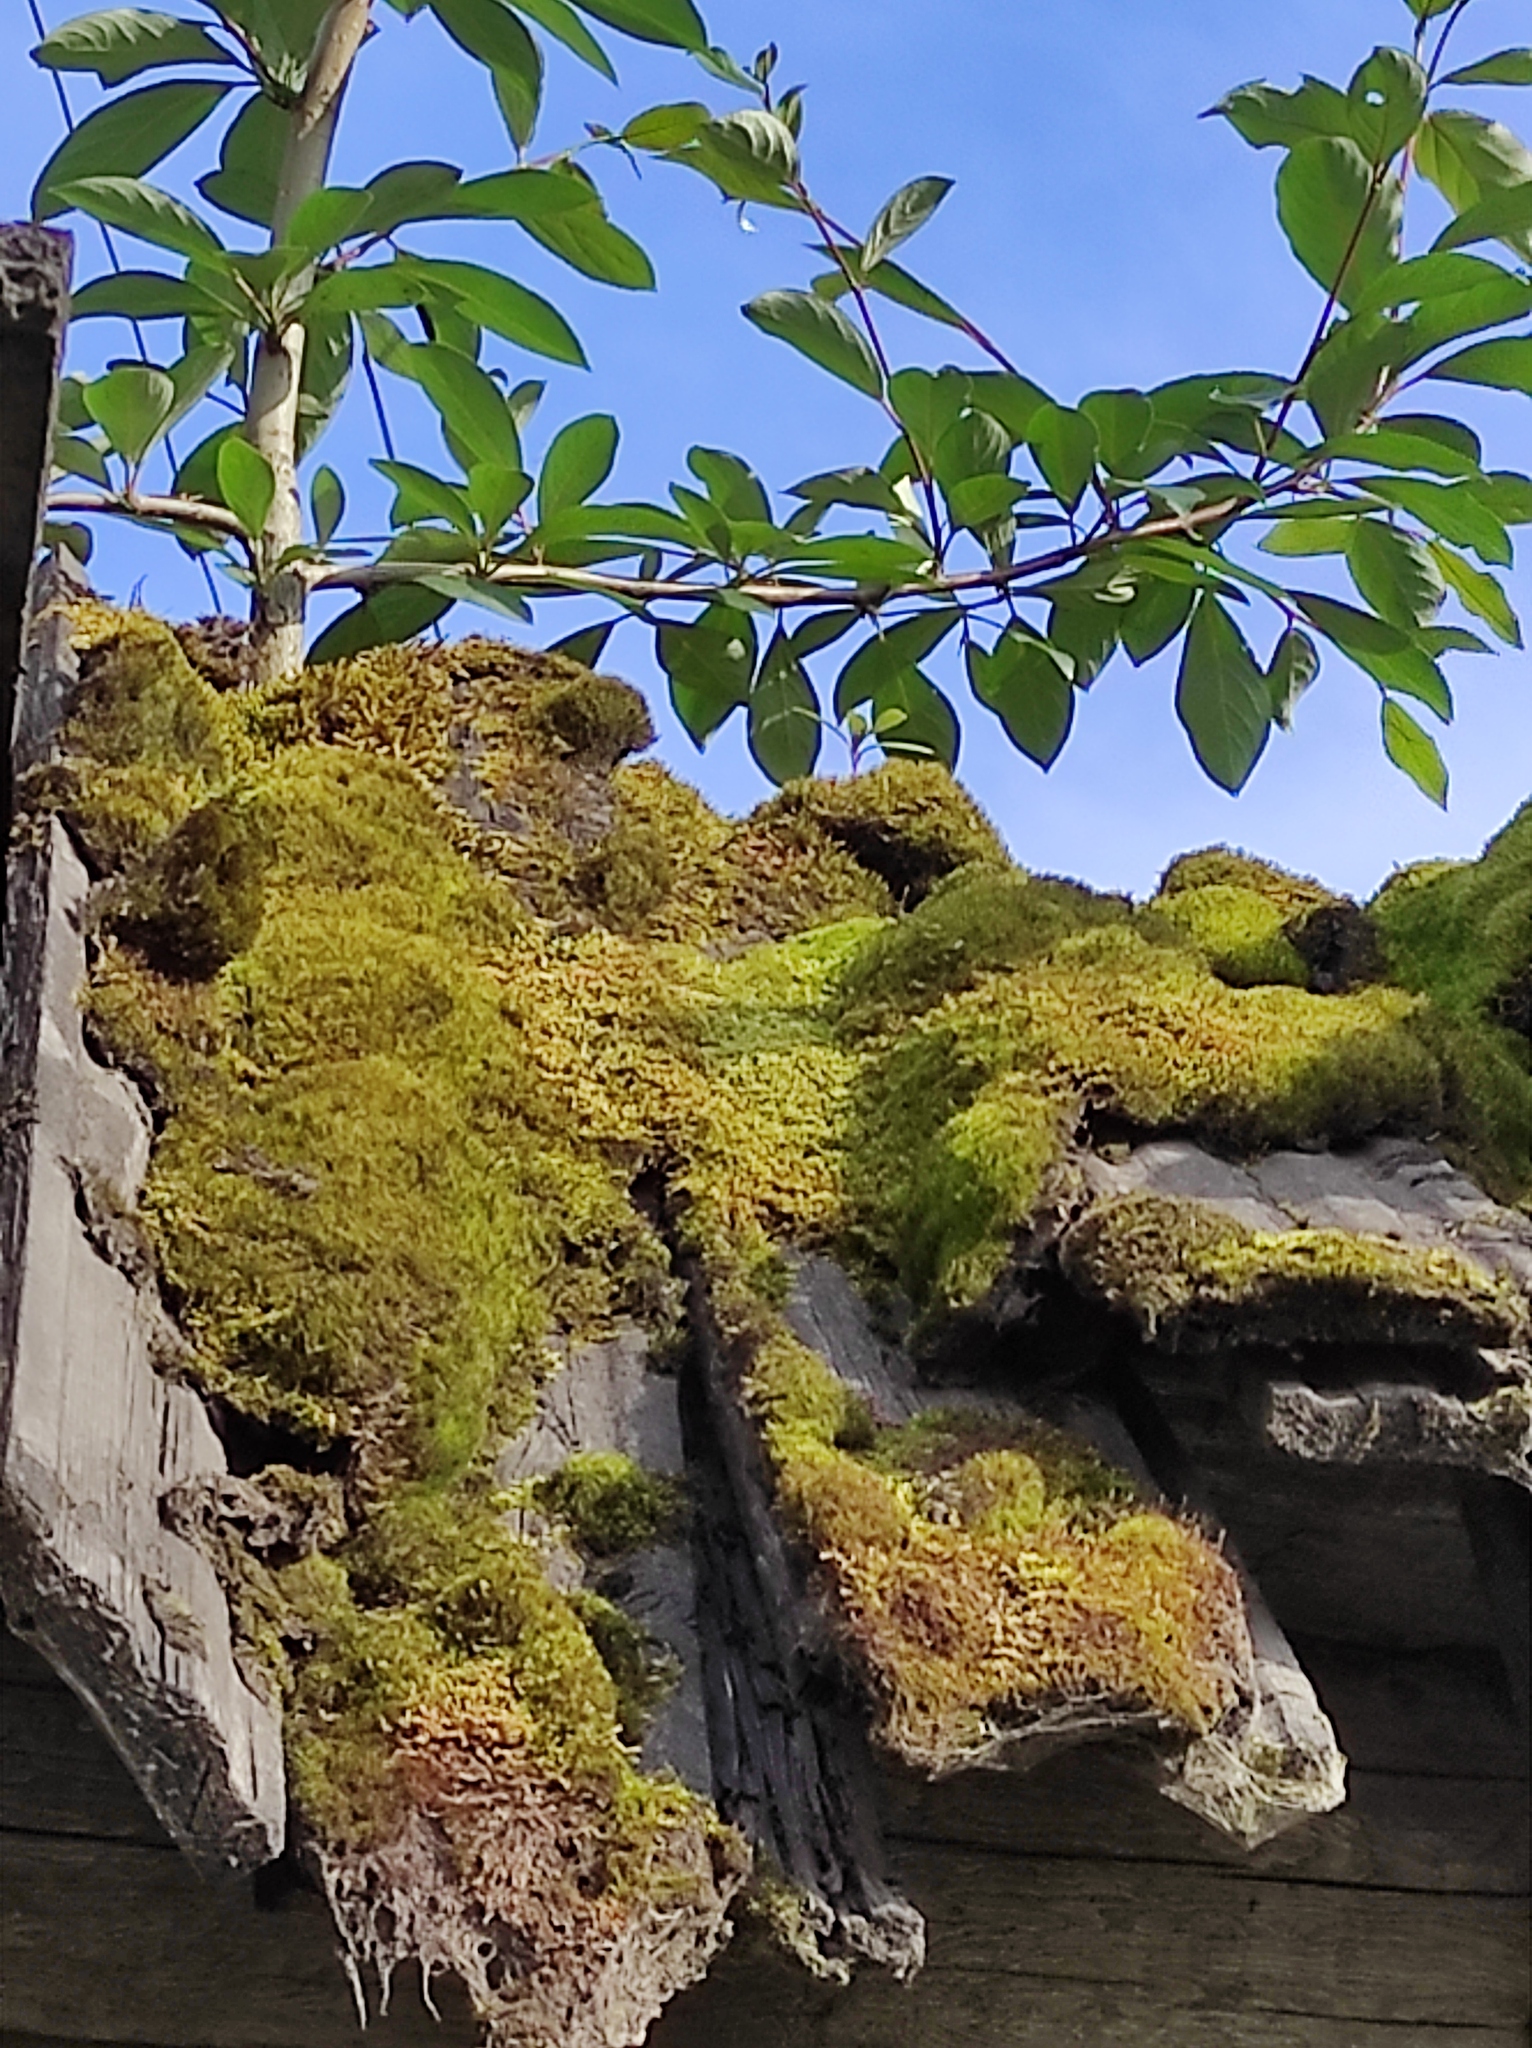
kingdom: Plantae
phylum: Tracheophyta
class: Magnoliopsida
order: Malpighiales
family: Salicaceae
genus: Populus
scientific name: Populus suaveolens
